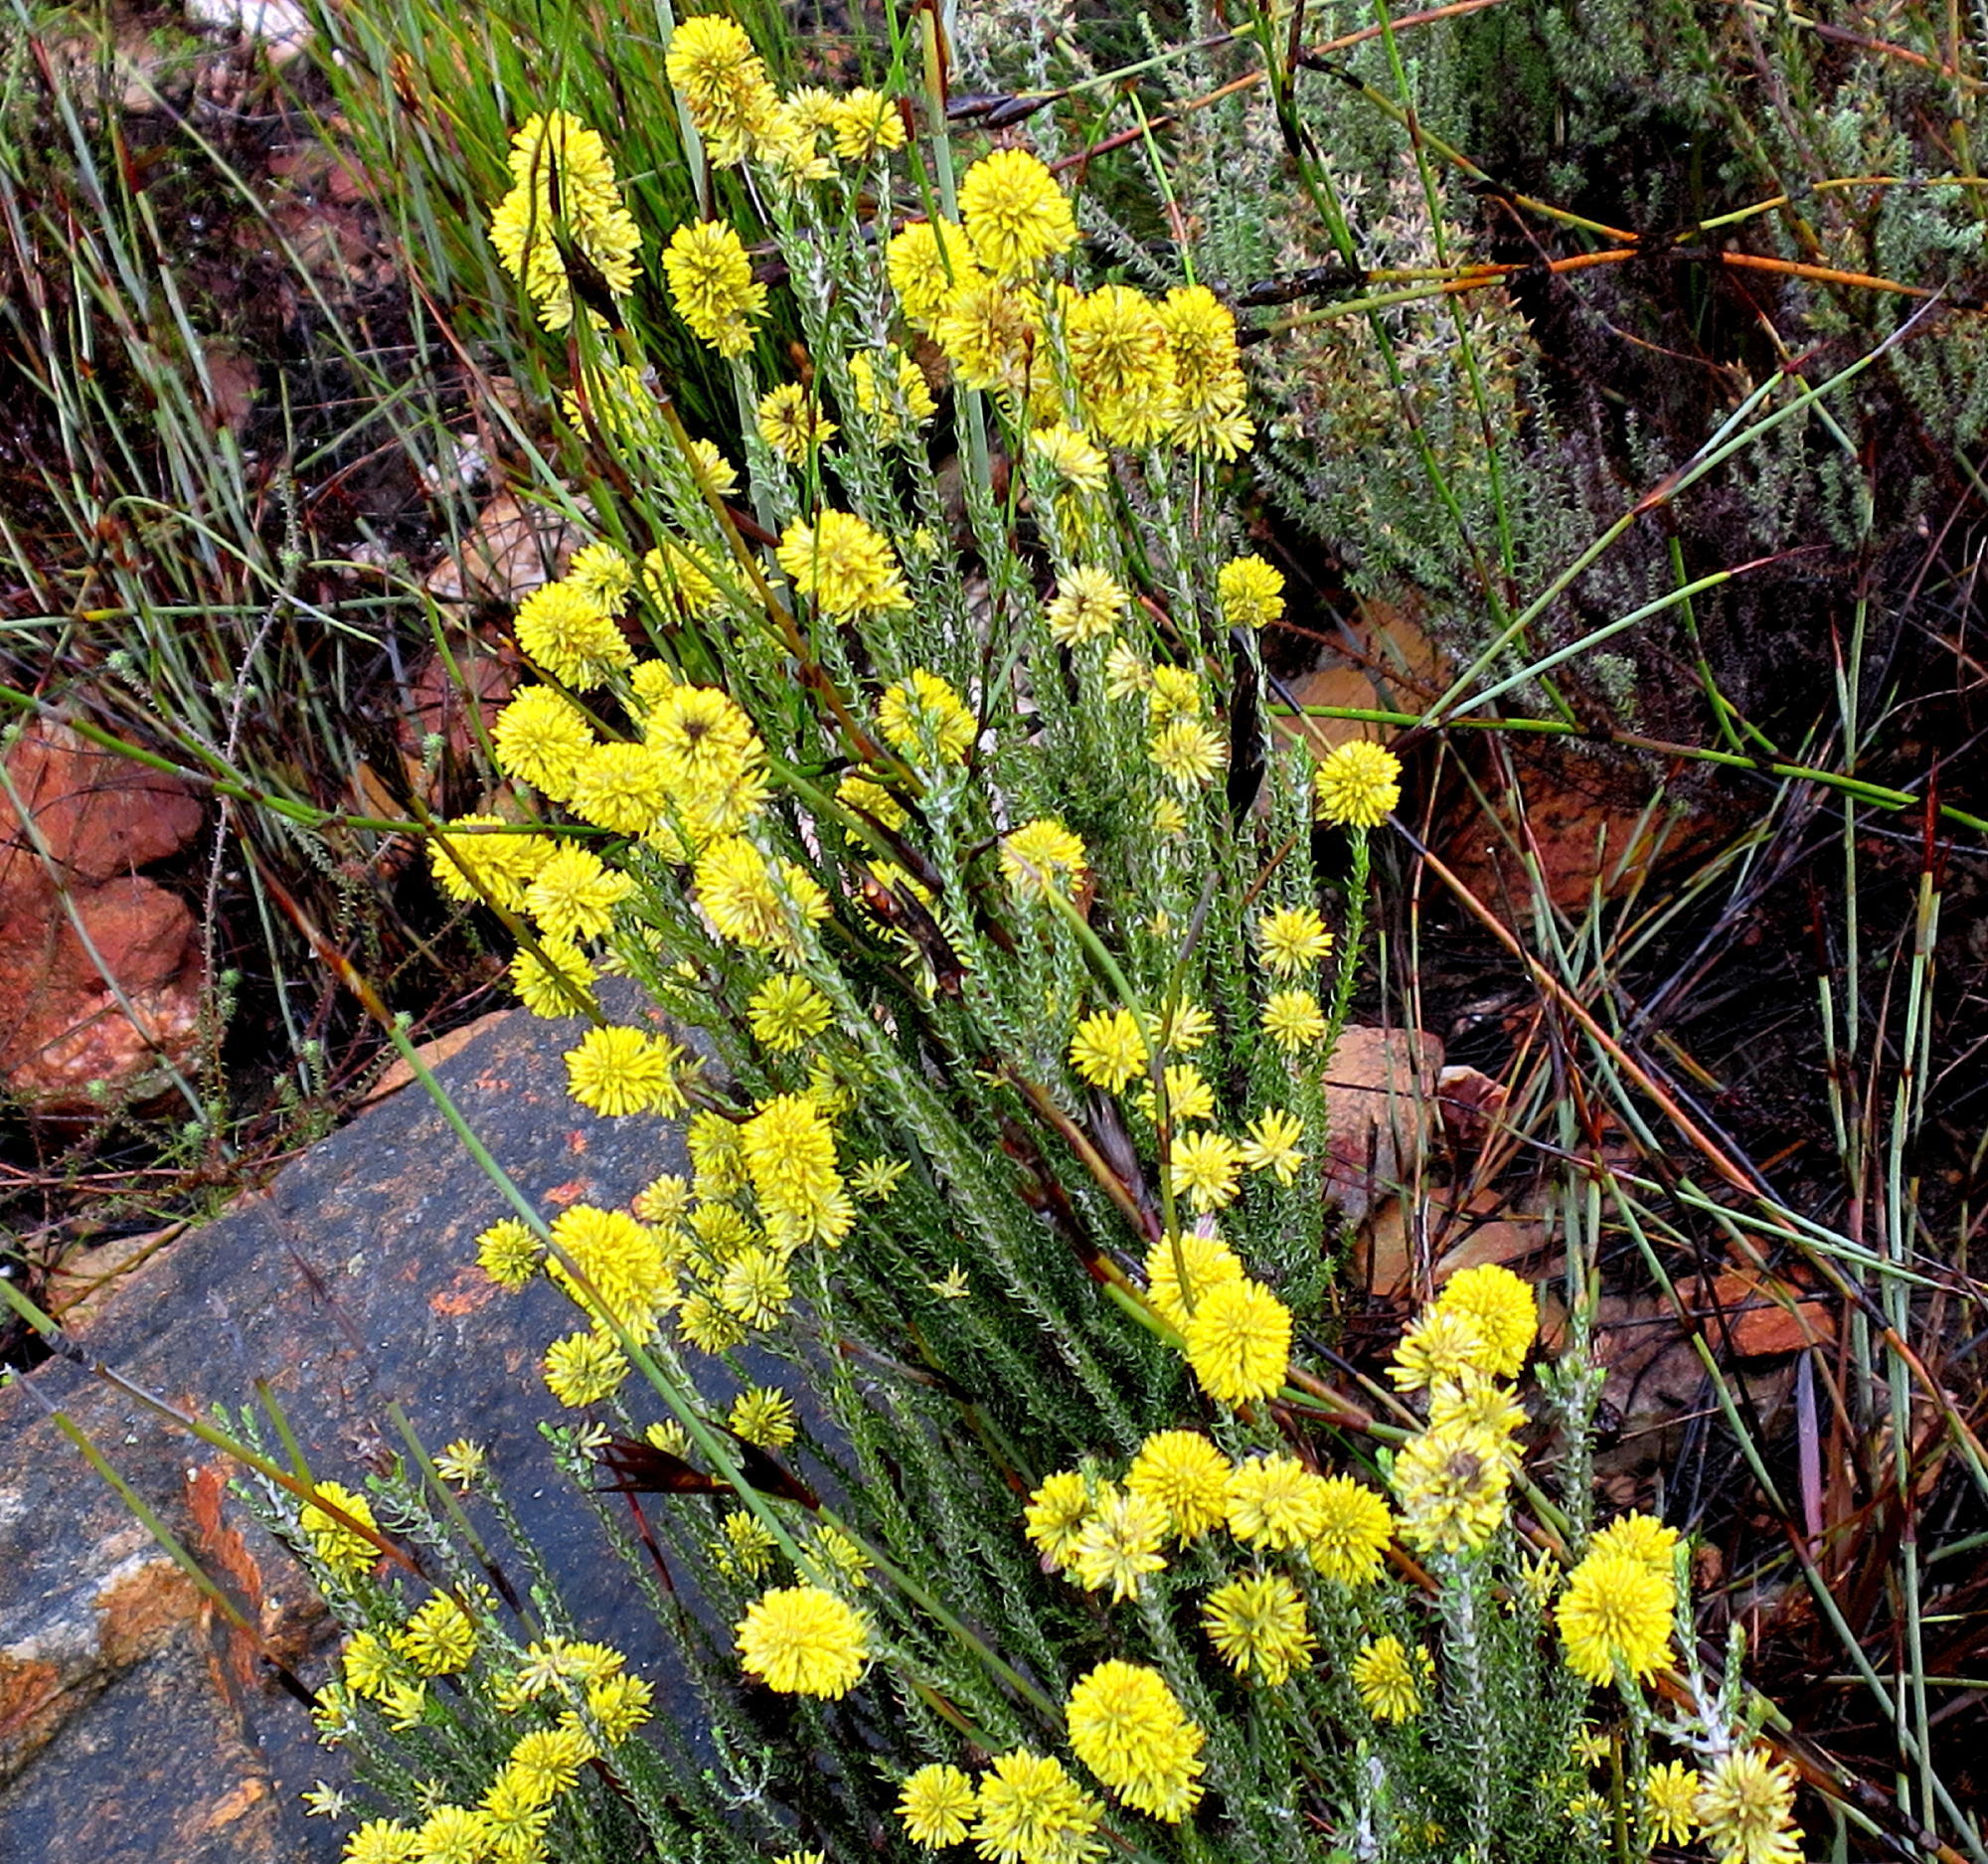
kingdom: Plantae
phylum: Tracheophyta
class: Magnoliopsida
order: Asterales
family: Asteraceae
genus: Seriphium
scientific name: Seriphium spirale
